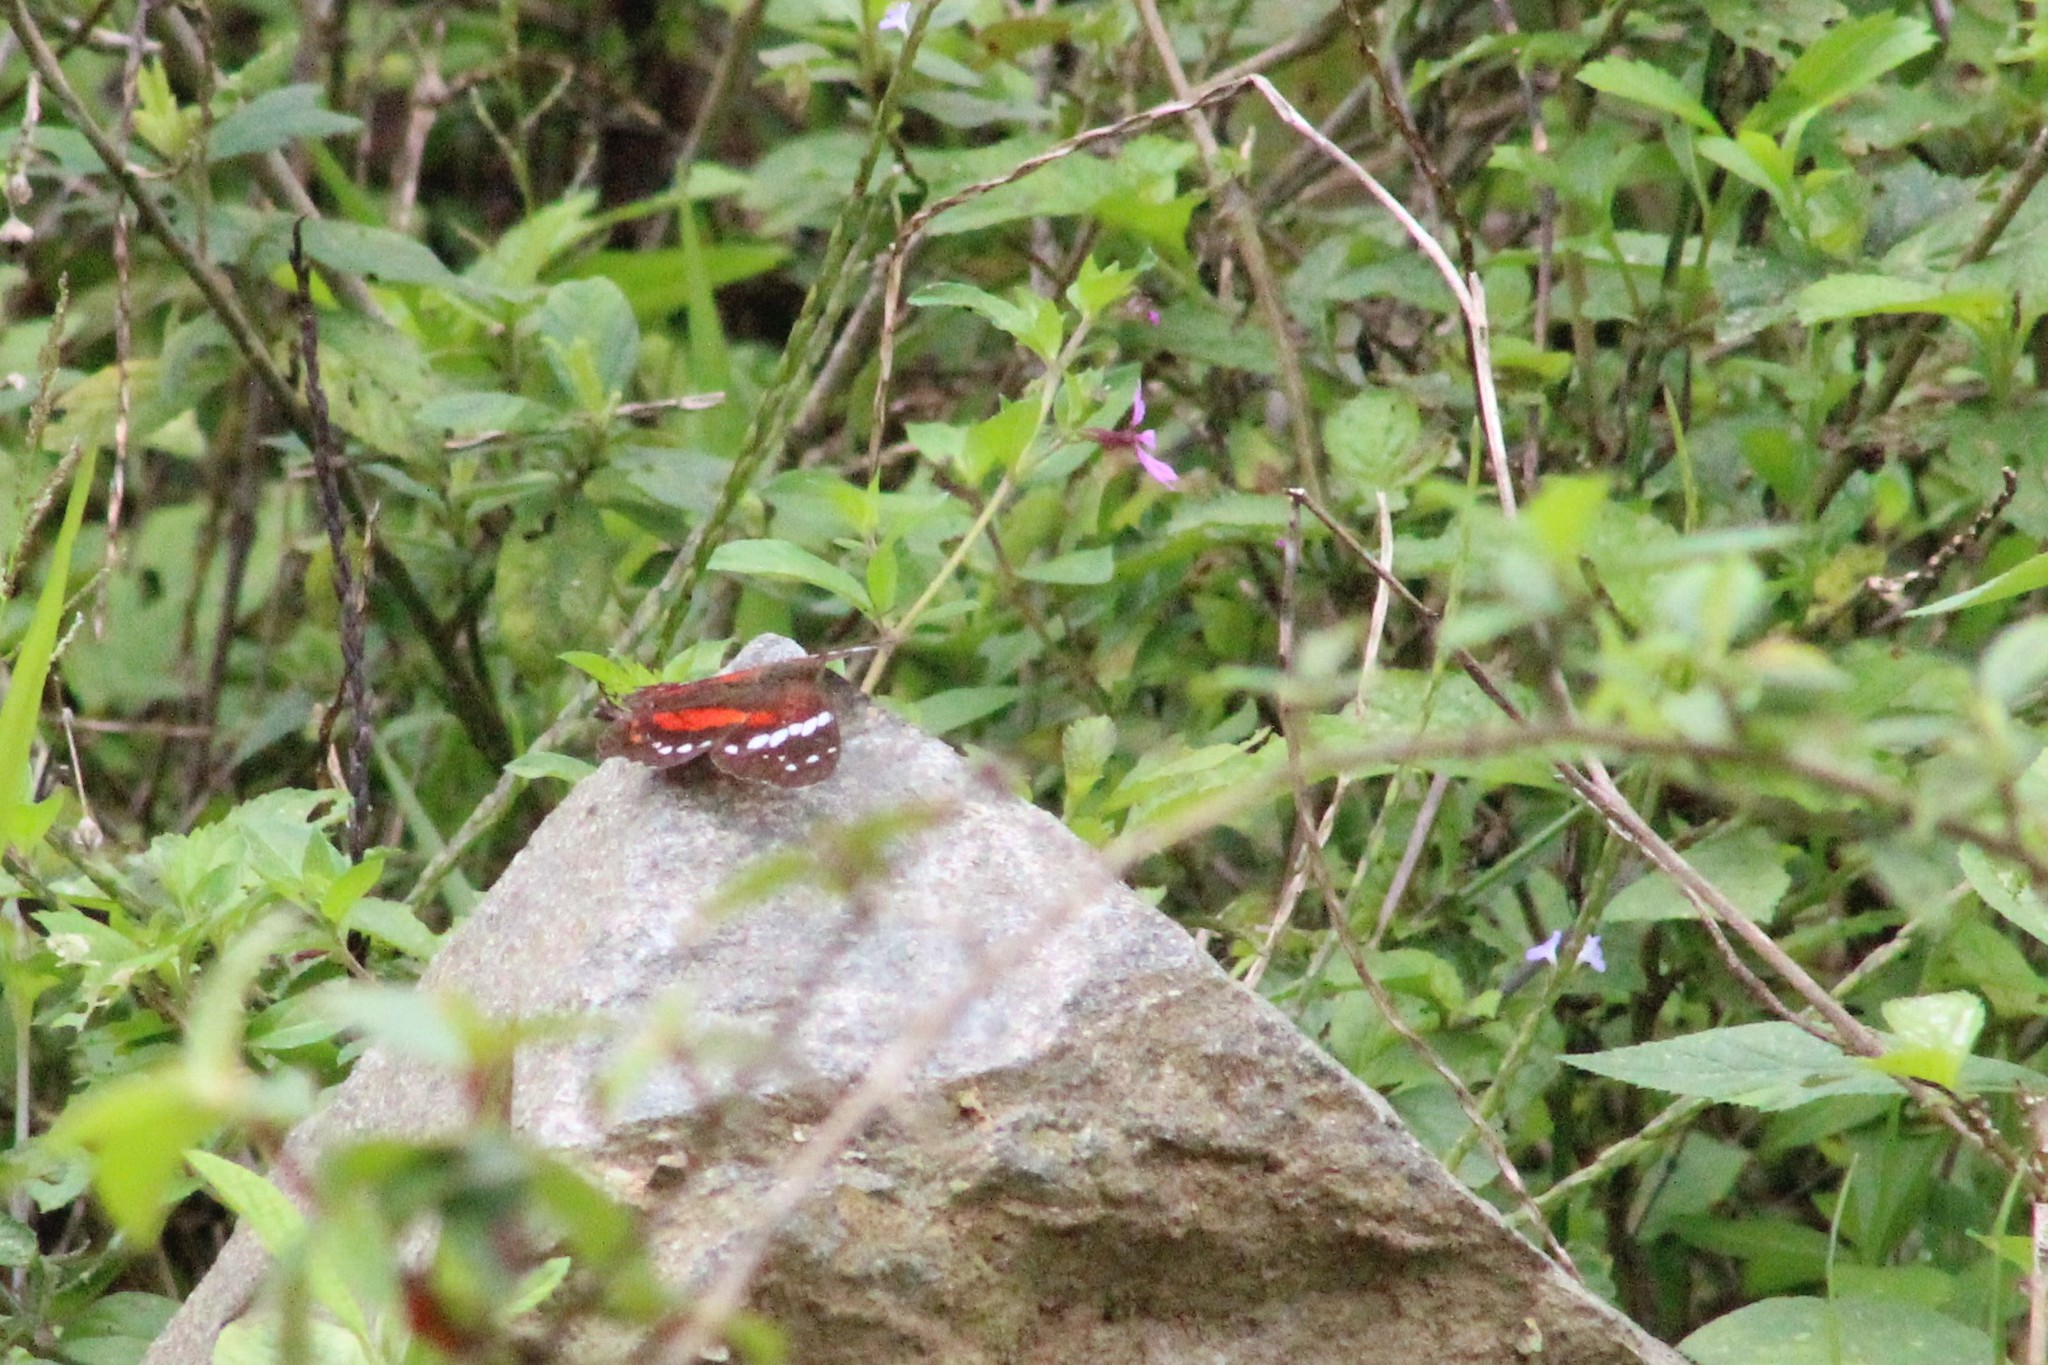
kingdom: Animalia
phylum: Arthropoda
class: Insecta
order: Lepidoptera
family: Nymphalidae
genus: Anartia
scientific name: Anartia amathea
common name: Red peacock
